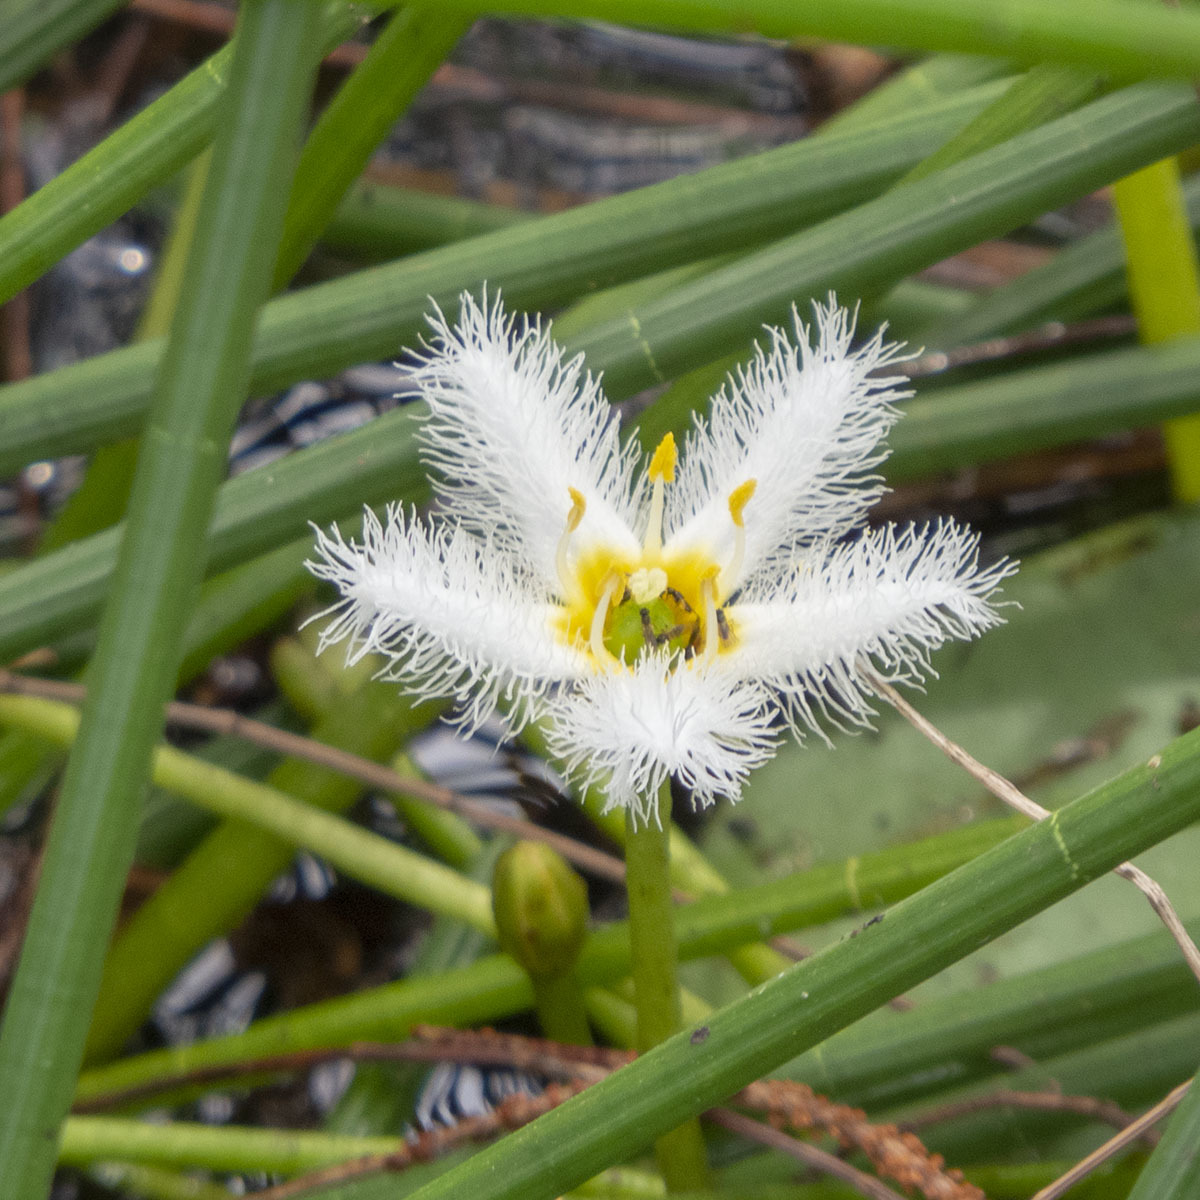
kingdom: Plantae
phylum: Tracheophyta
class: Magnoliopsida
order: Asterales
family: Menyanthaceae
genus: Nymphoides
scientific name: Nymphoides indica
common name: Water-snowflake
